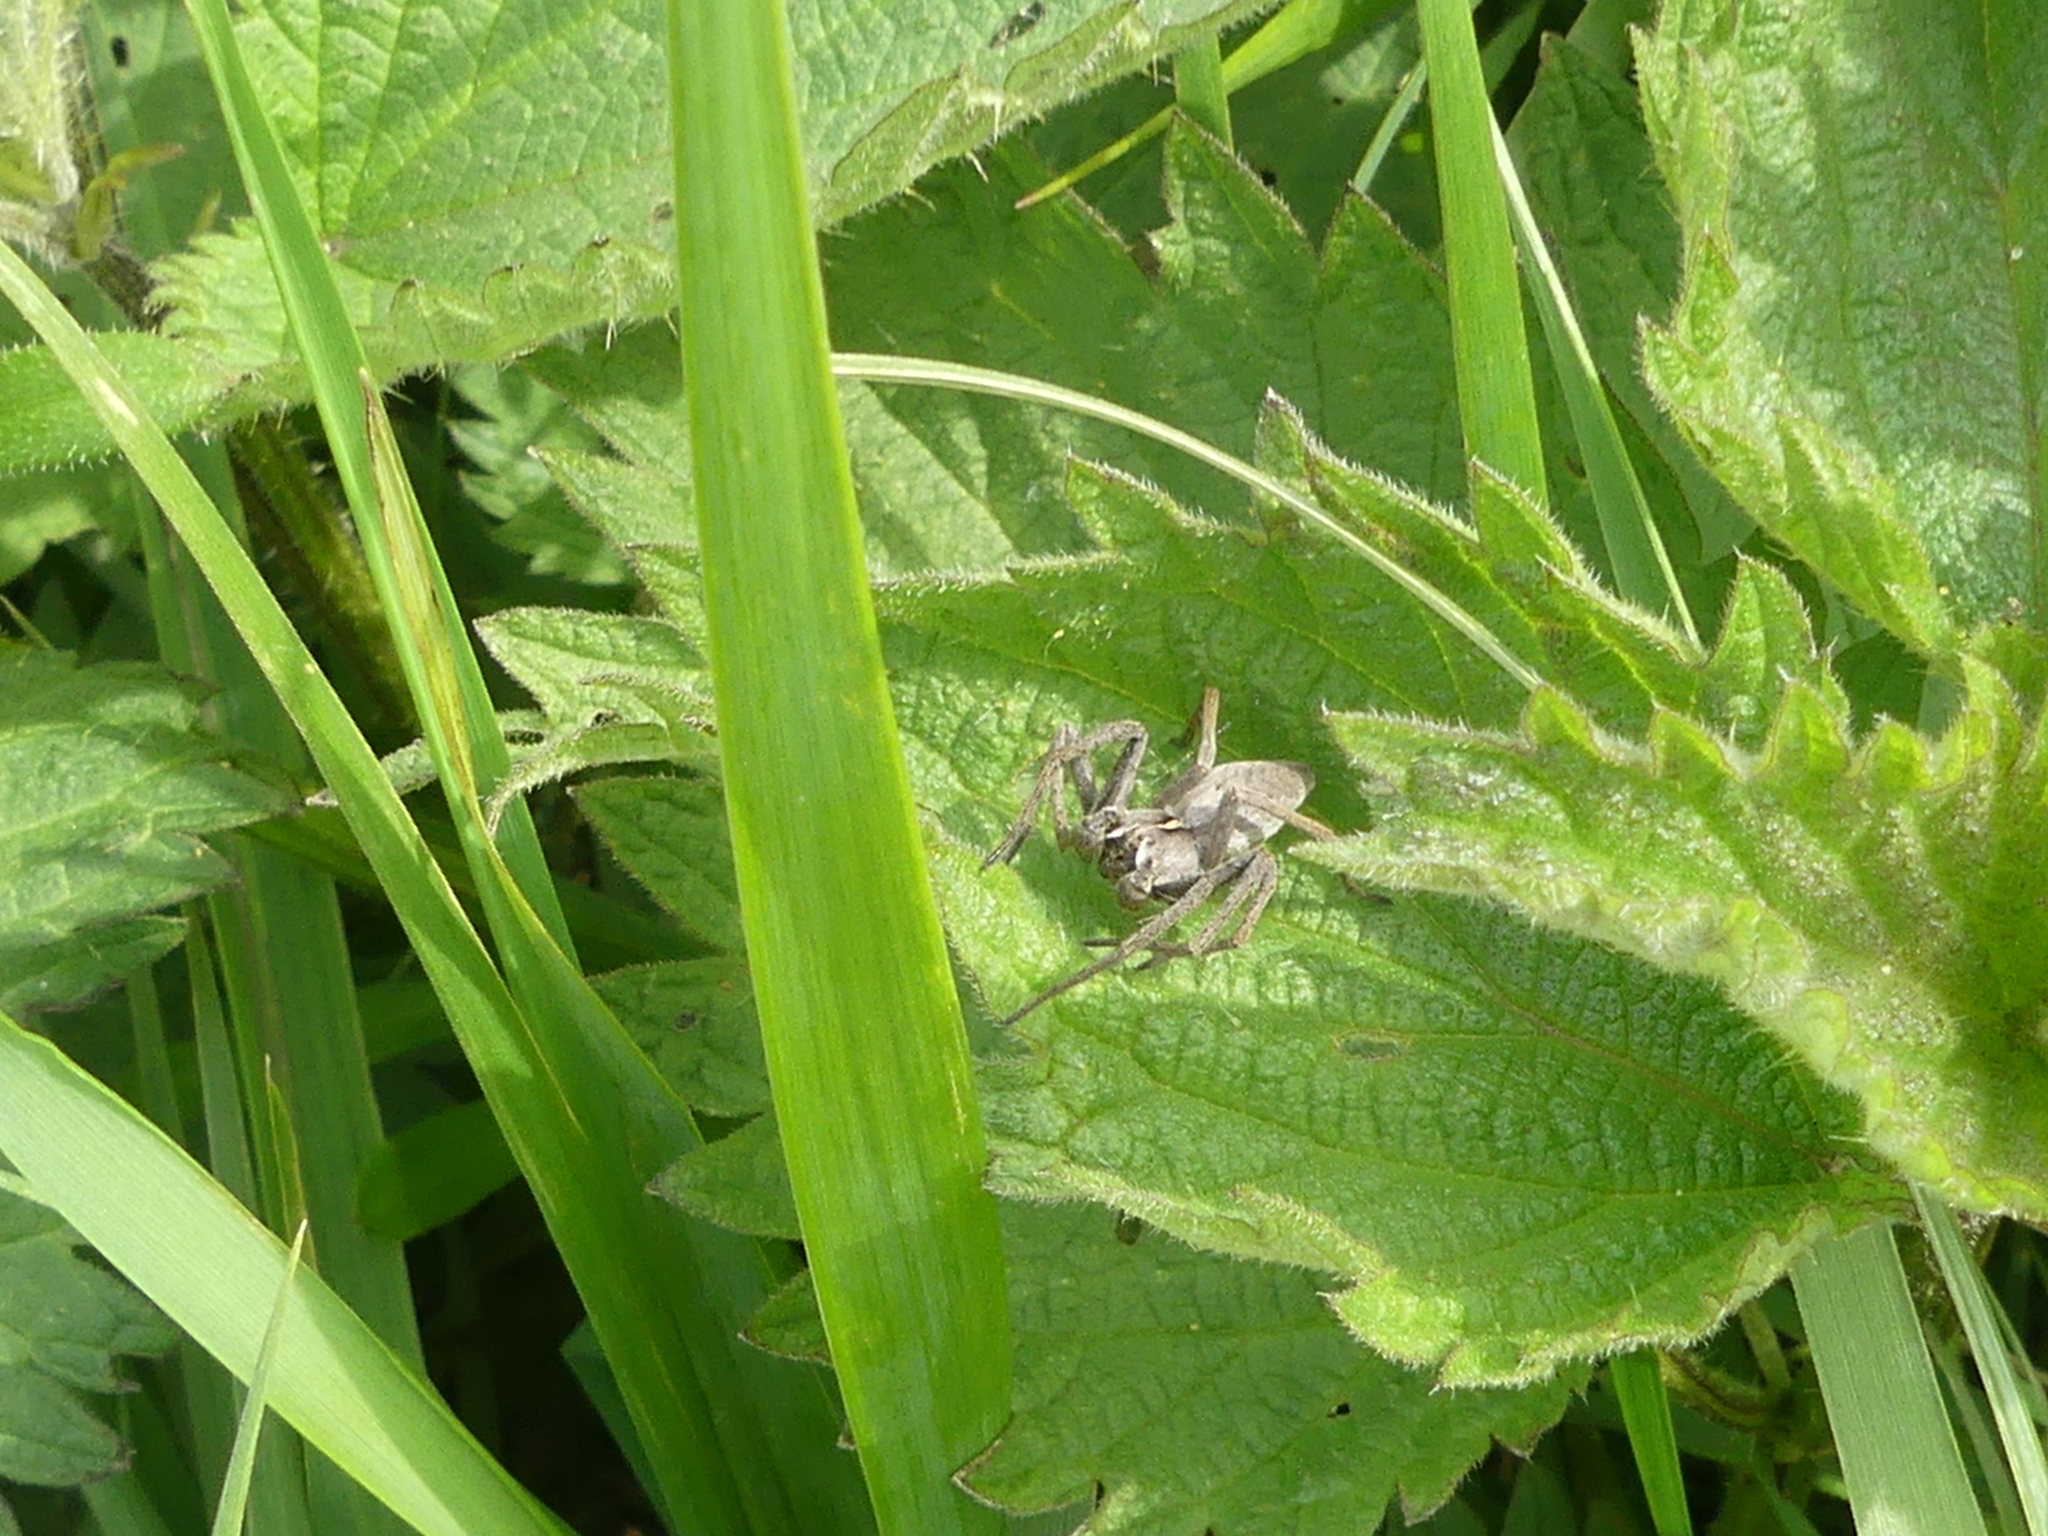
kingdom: Animalia
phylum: Arthropoda
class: Arachnida
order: Araneae
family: Pisauridae
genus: Pisaura
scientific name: Pisaura mirabilis
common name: Tent spider
